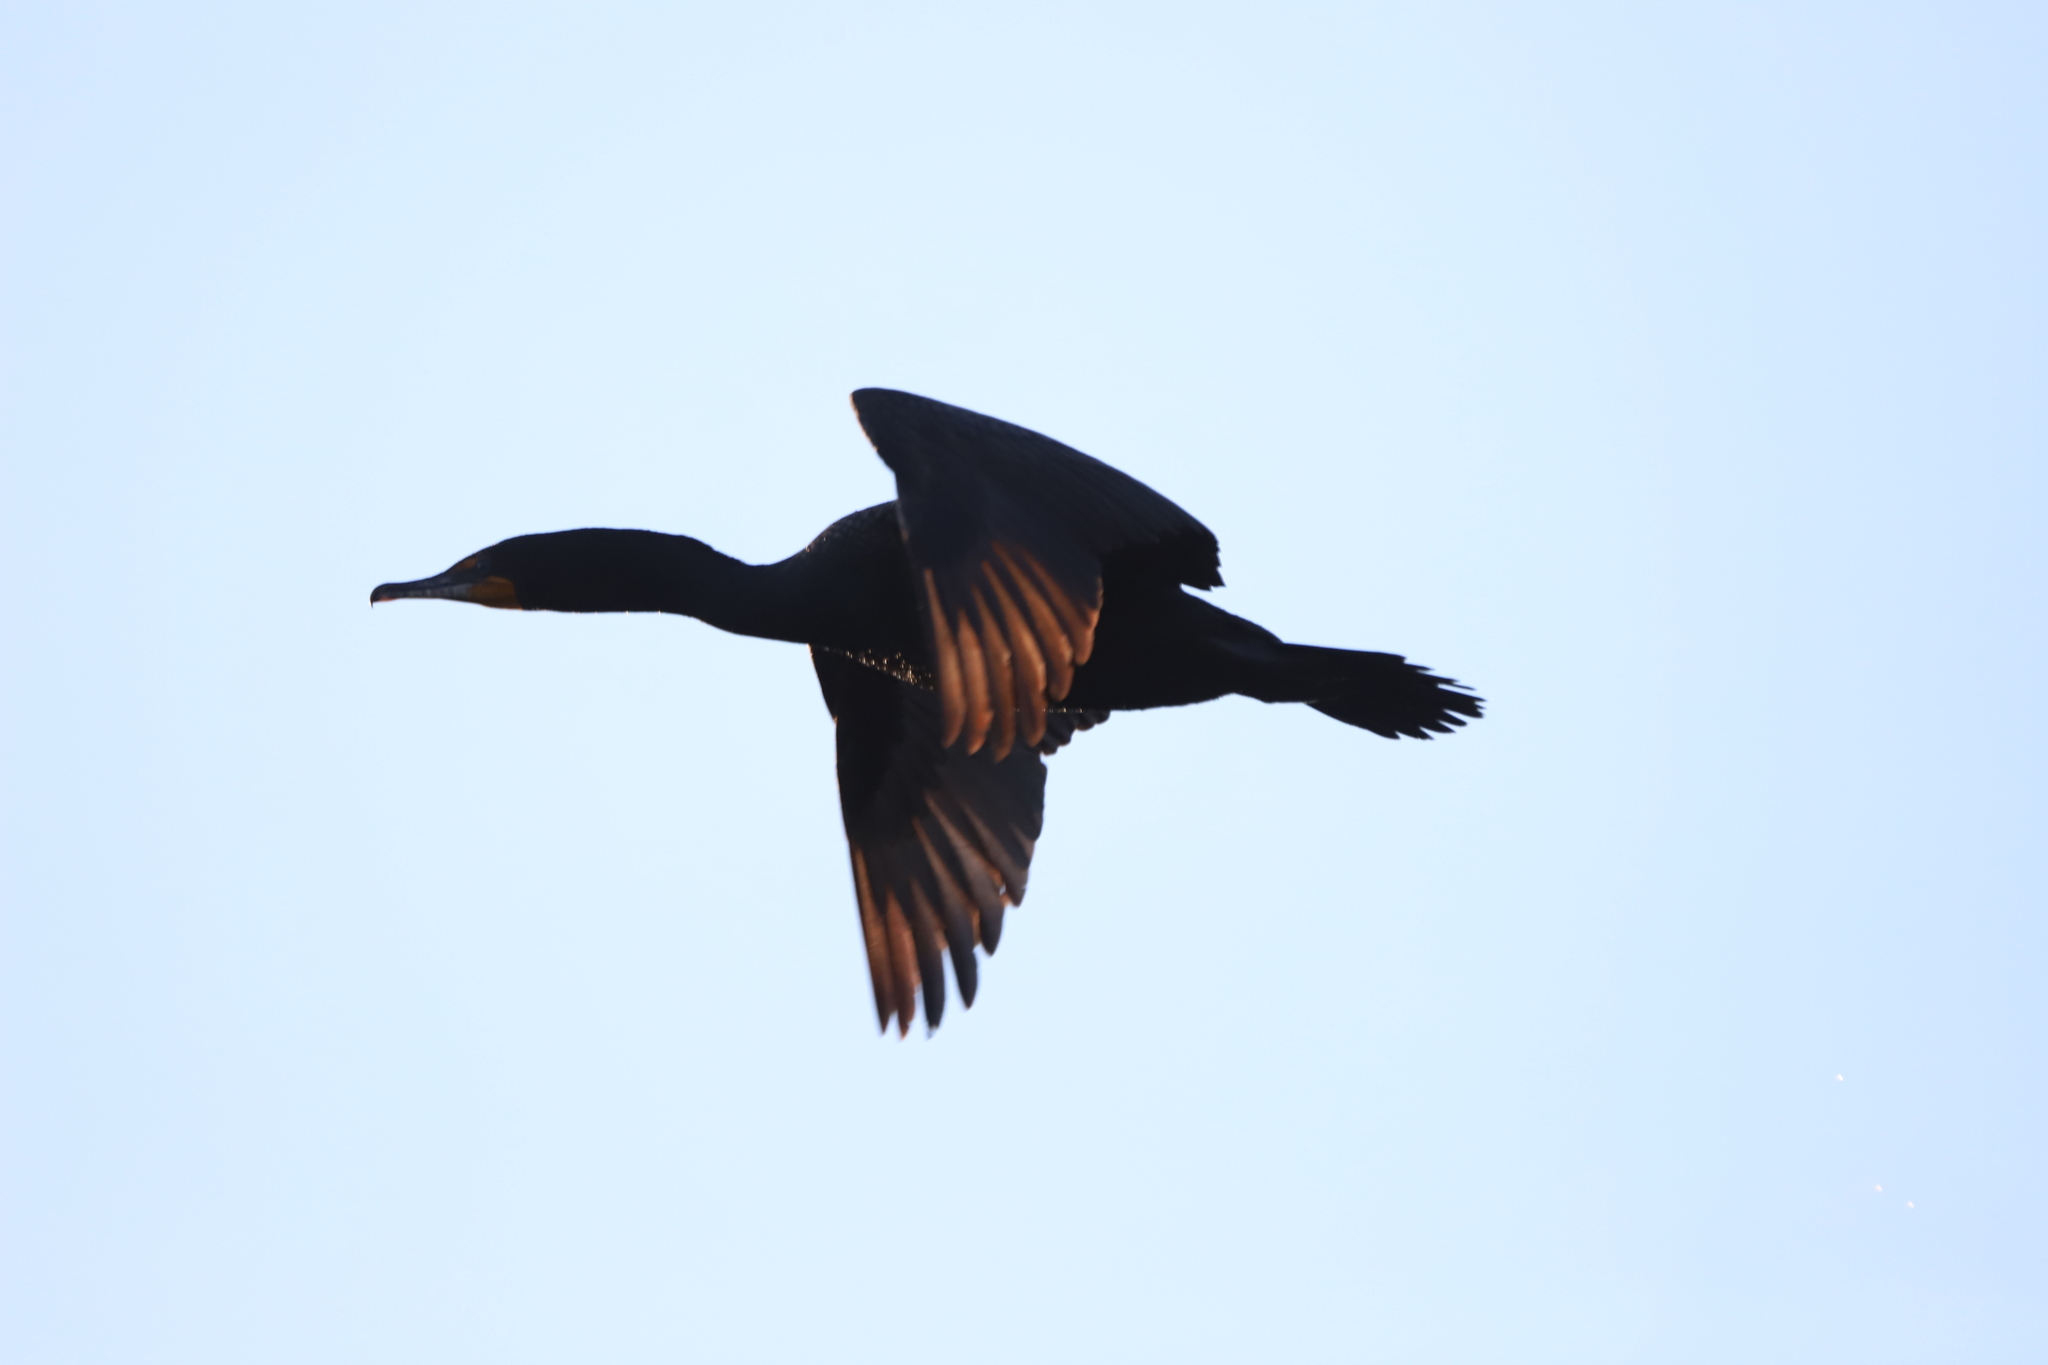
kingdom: Animalia
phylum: Chordata
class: Aves
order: Suliformes
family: Phalacrocoracidae
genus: Phalacrocorax
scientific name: Phalacrocorax auritus
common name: Double-crested cormorant
